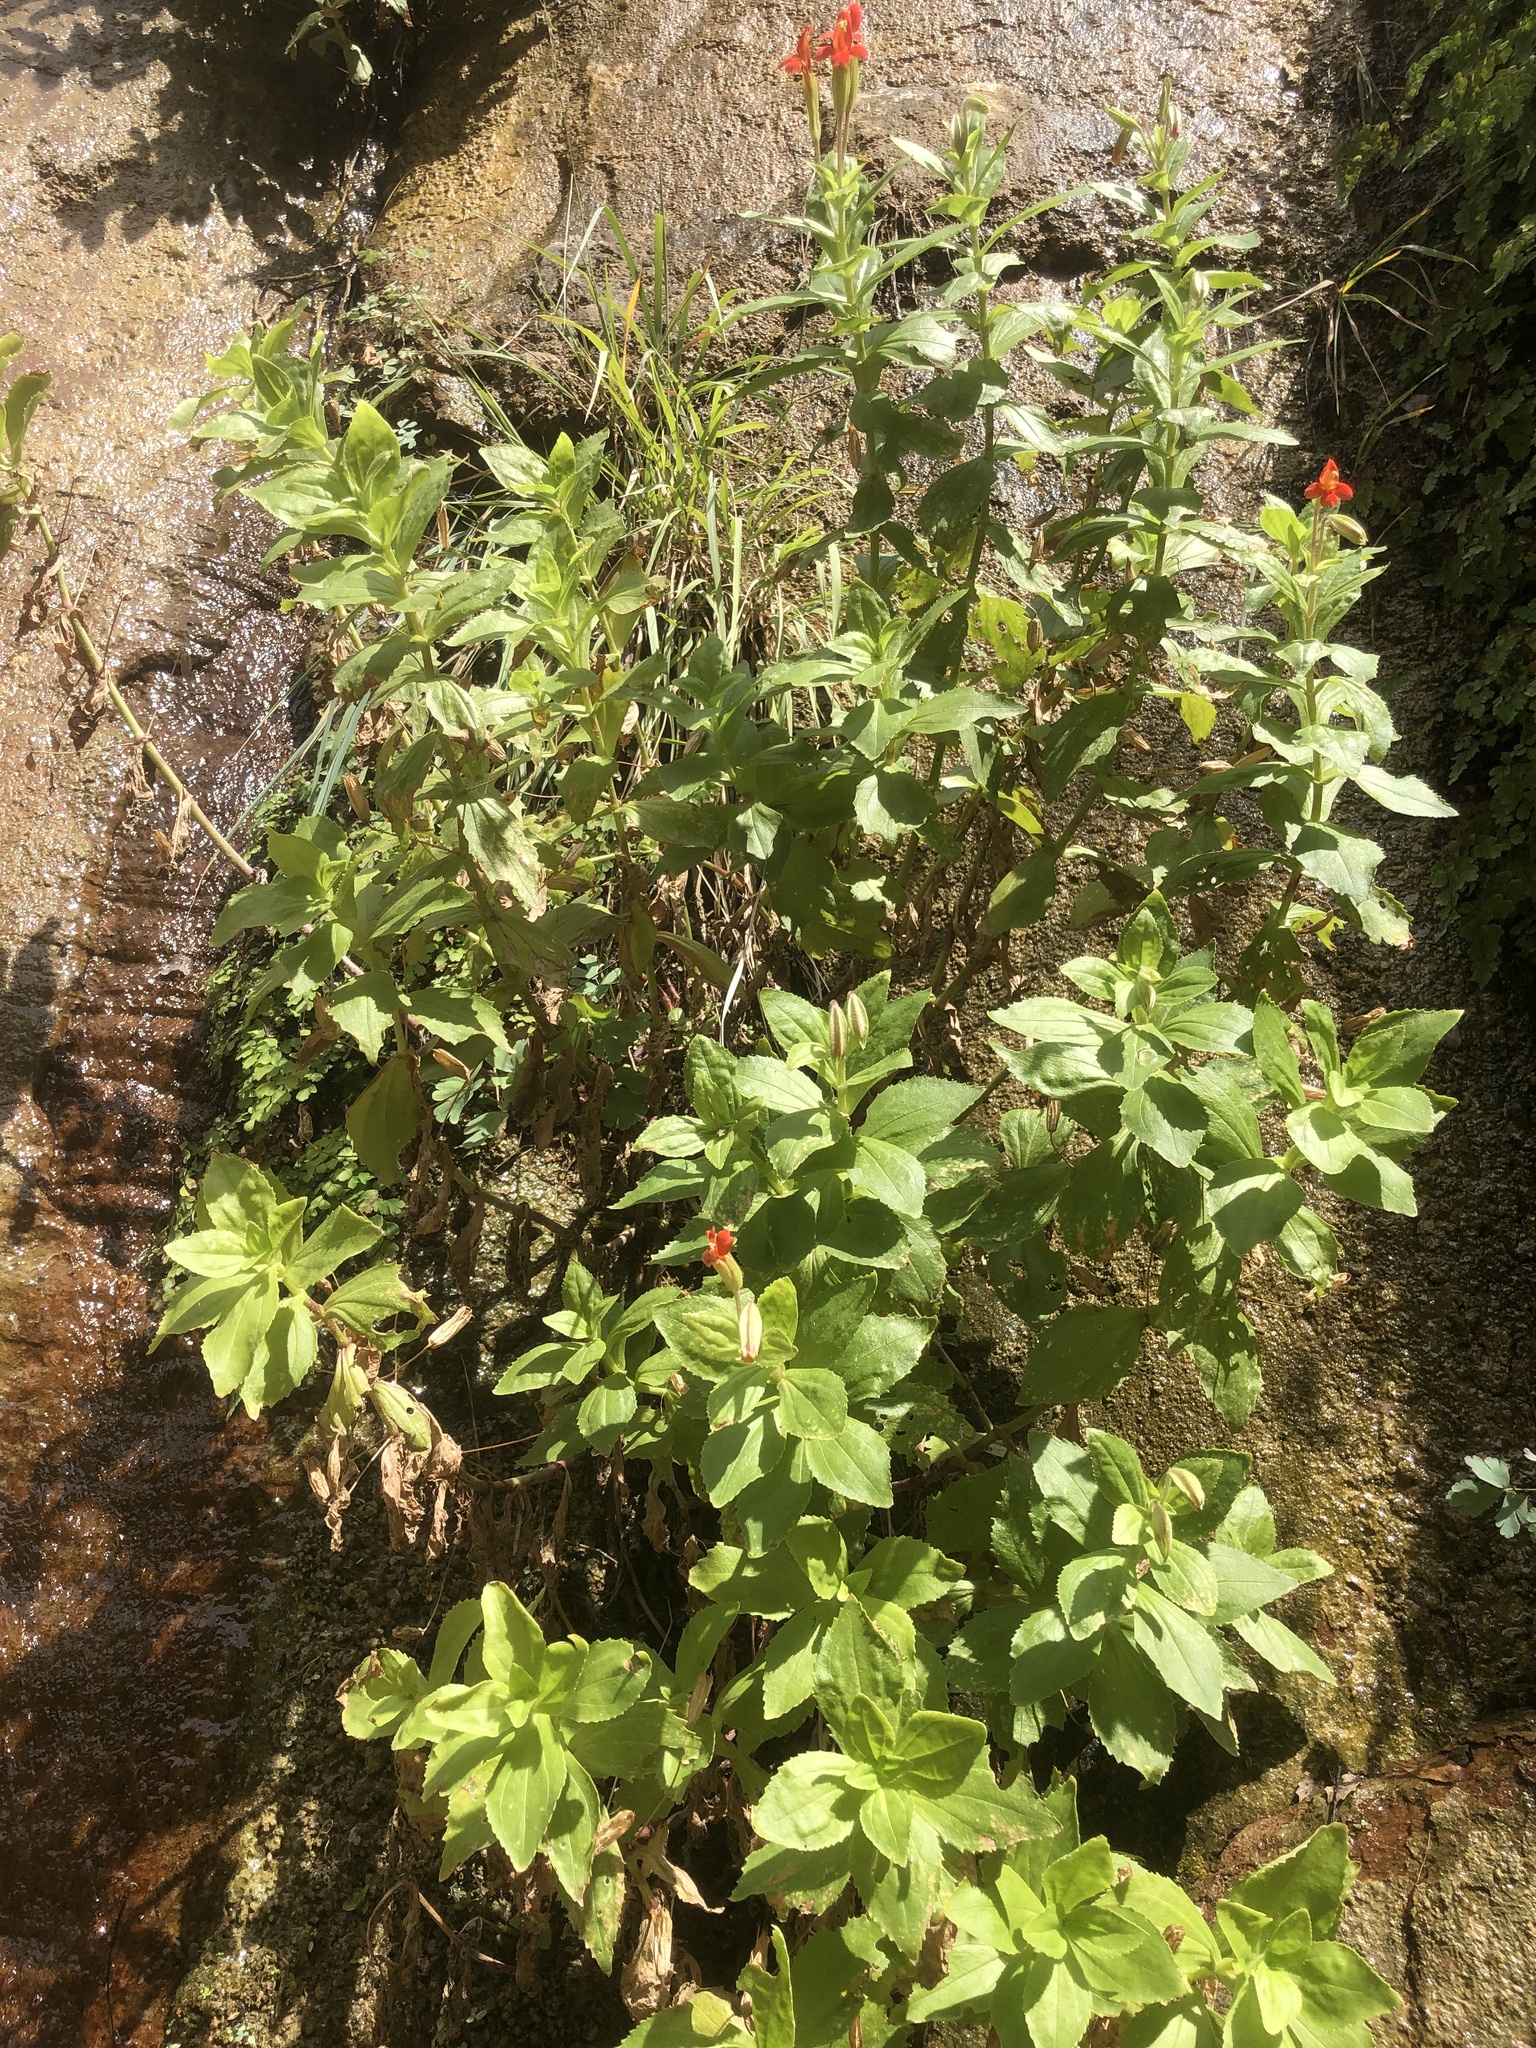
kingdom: Plantae
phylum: Tracheophyta
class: Magnoliopsida
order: Lamiales
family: Phrymaceae
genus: Erythranthe
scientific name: Erythranthe verbenacea
